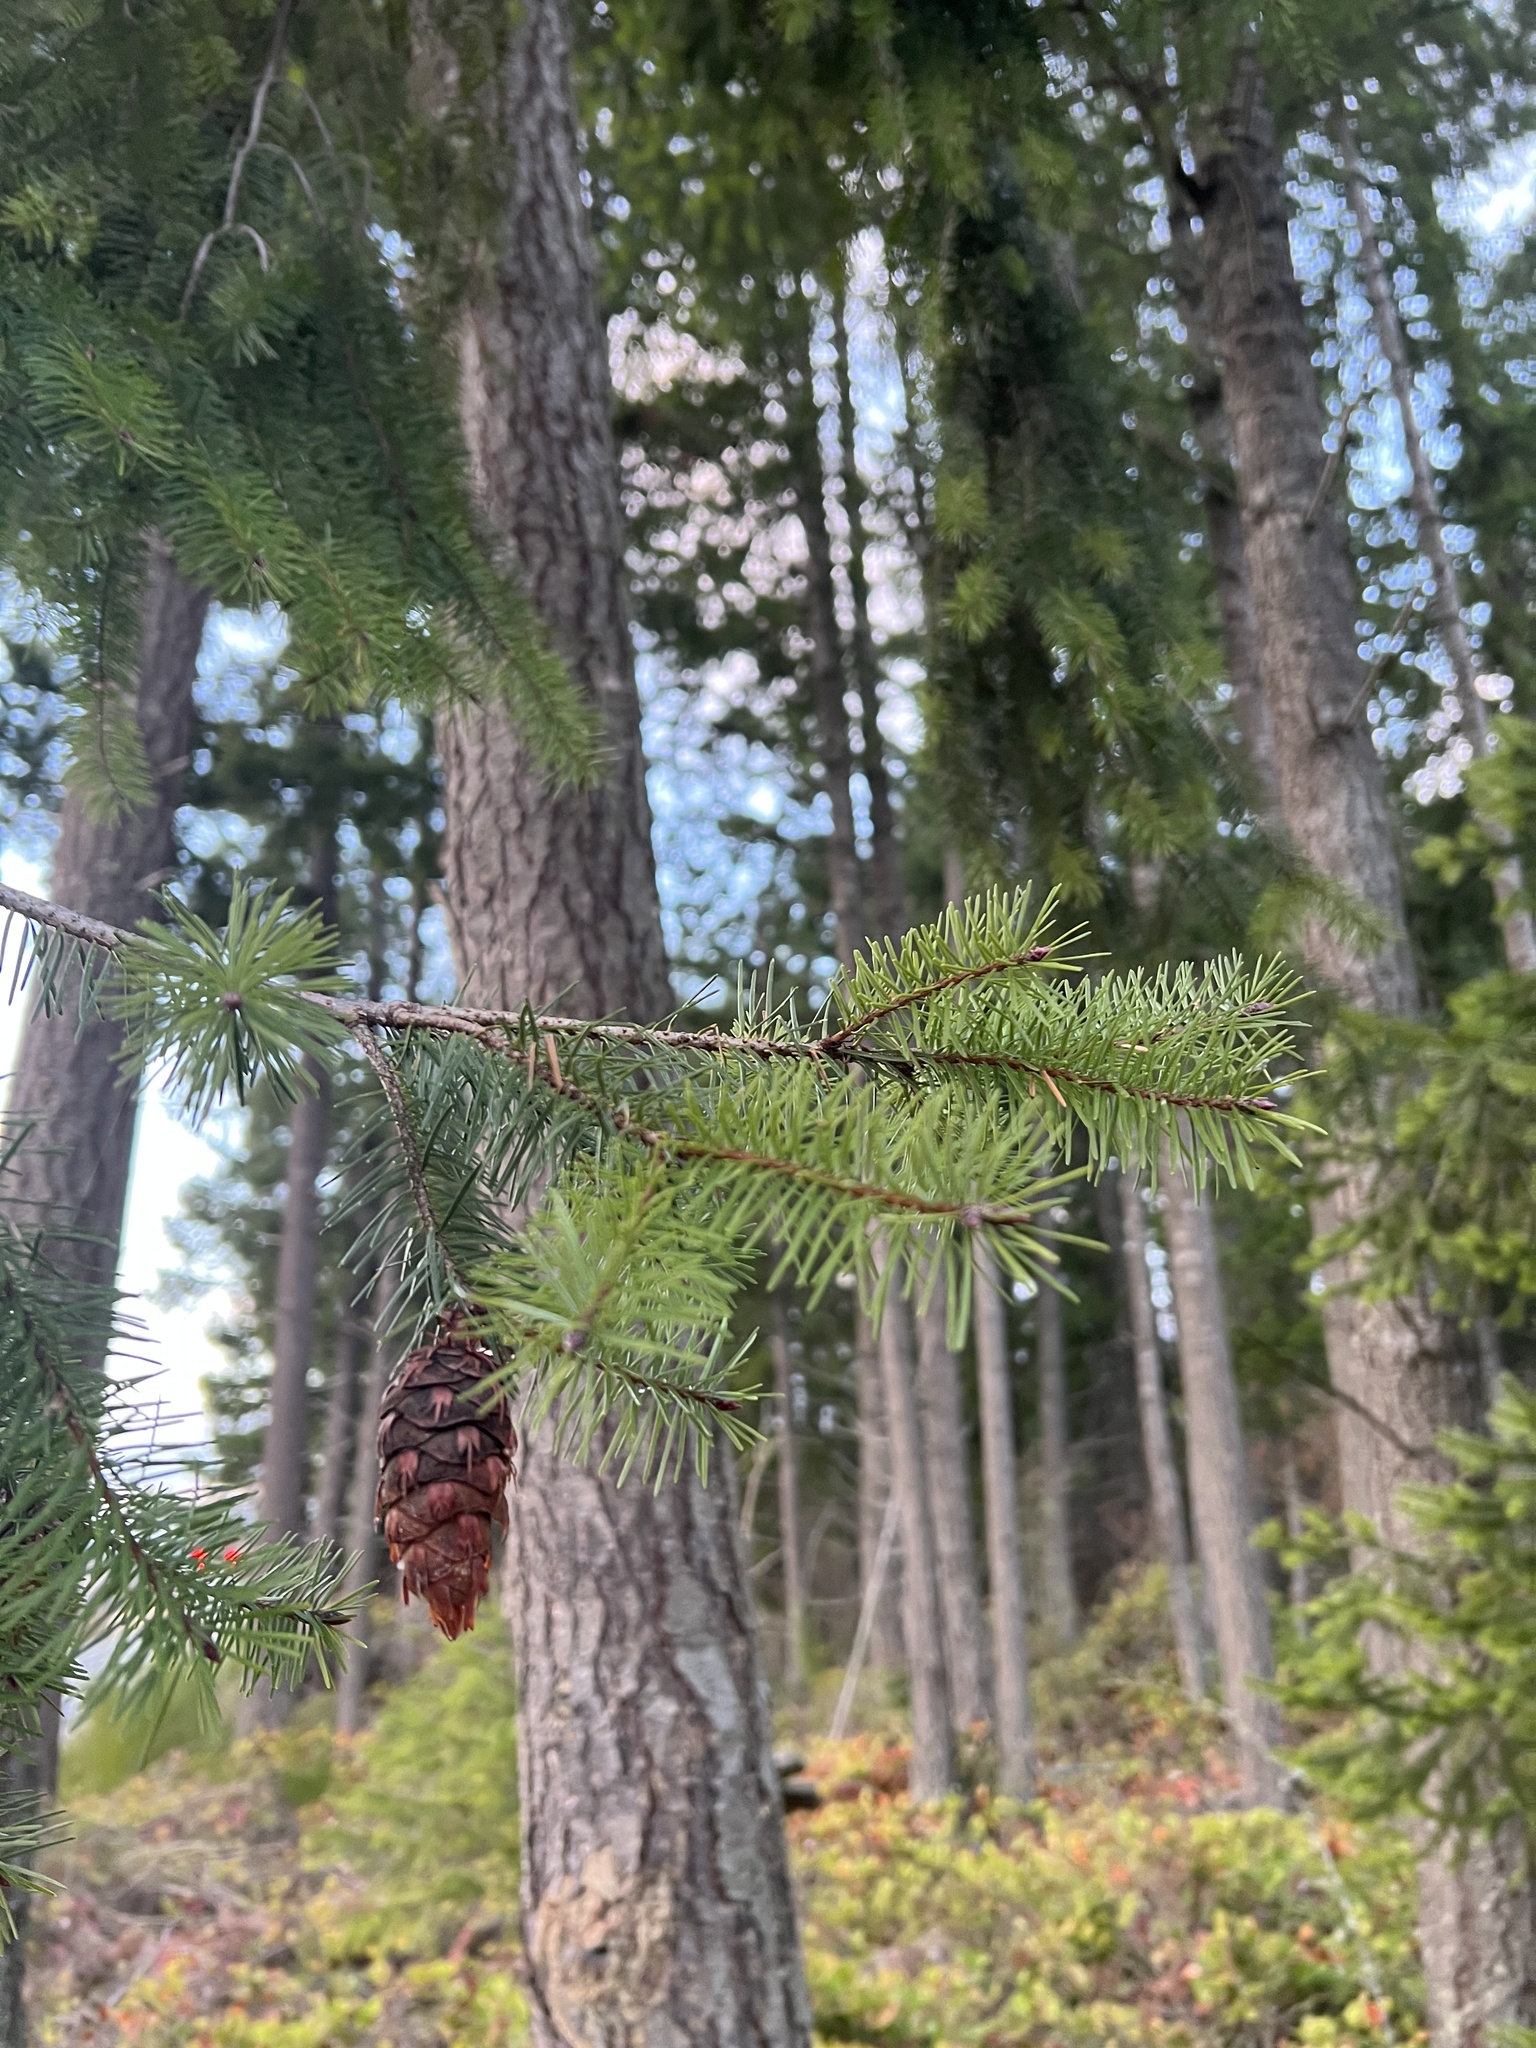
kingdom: Plantae
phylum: Tracheophyta
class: Pinopsida
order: Pinales
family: Pinaceae
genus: Pseudotsuga
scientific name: Pseudotsuga menziesii
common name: Douglas fir
